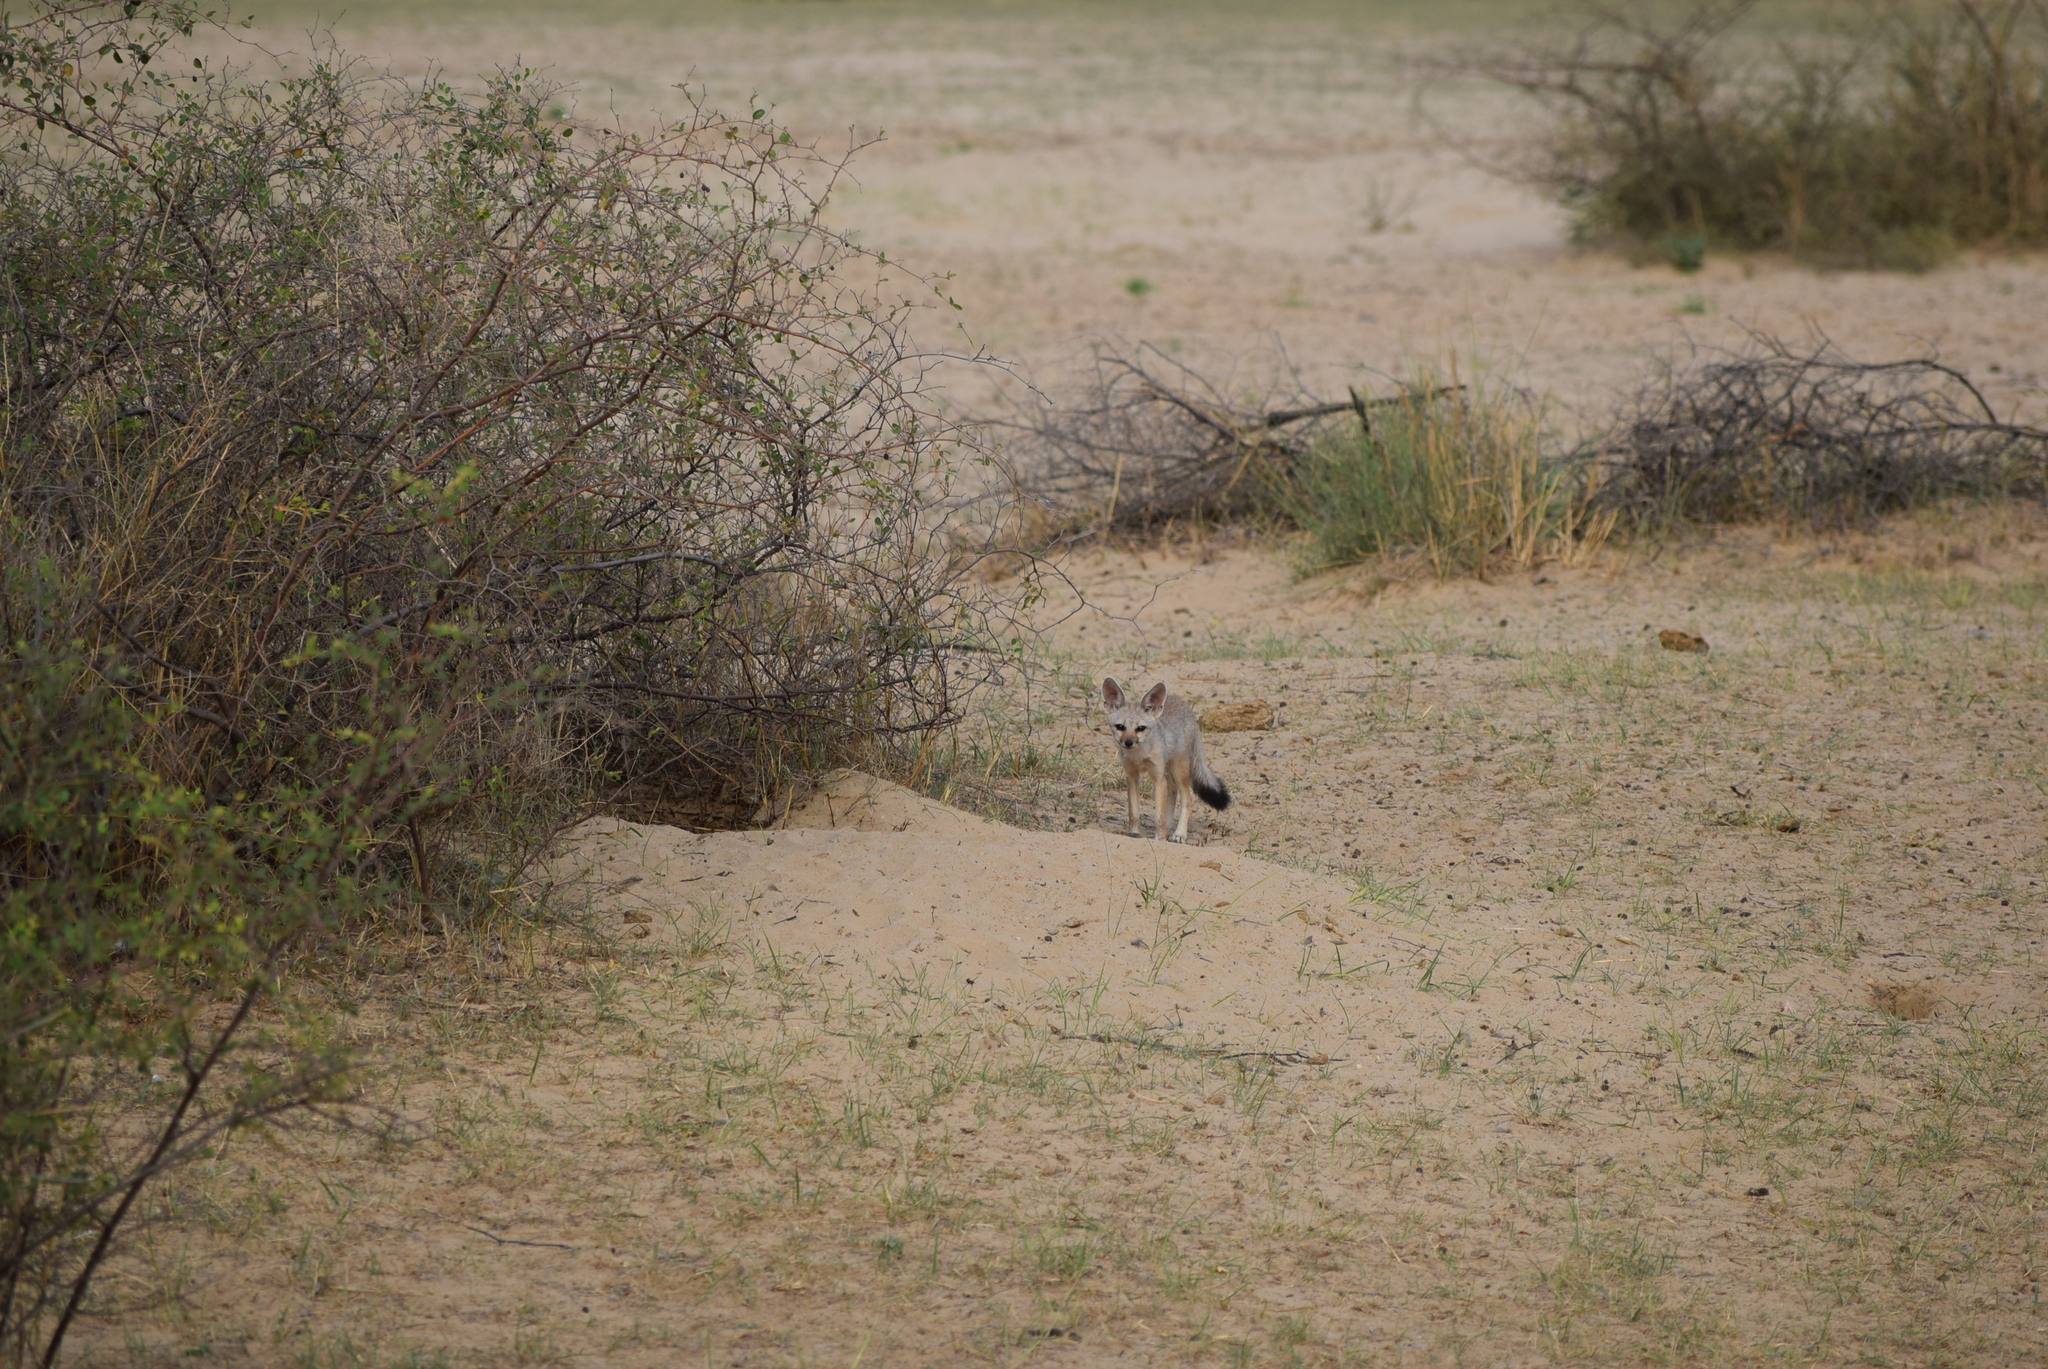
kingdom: Animalia
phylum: Chordata
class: Mammalia
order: Carnivora
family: Canidae
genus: Vulpes
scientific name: Vulpes bengalensis
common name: Bengal fox
